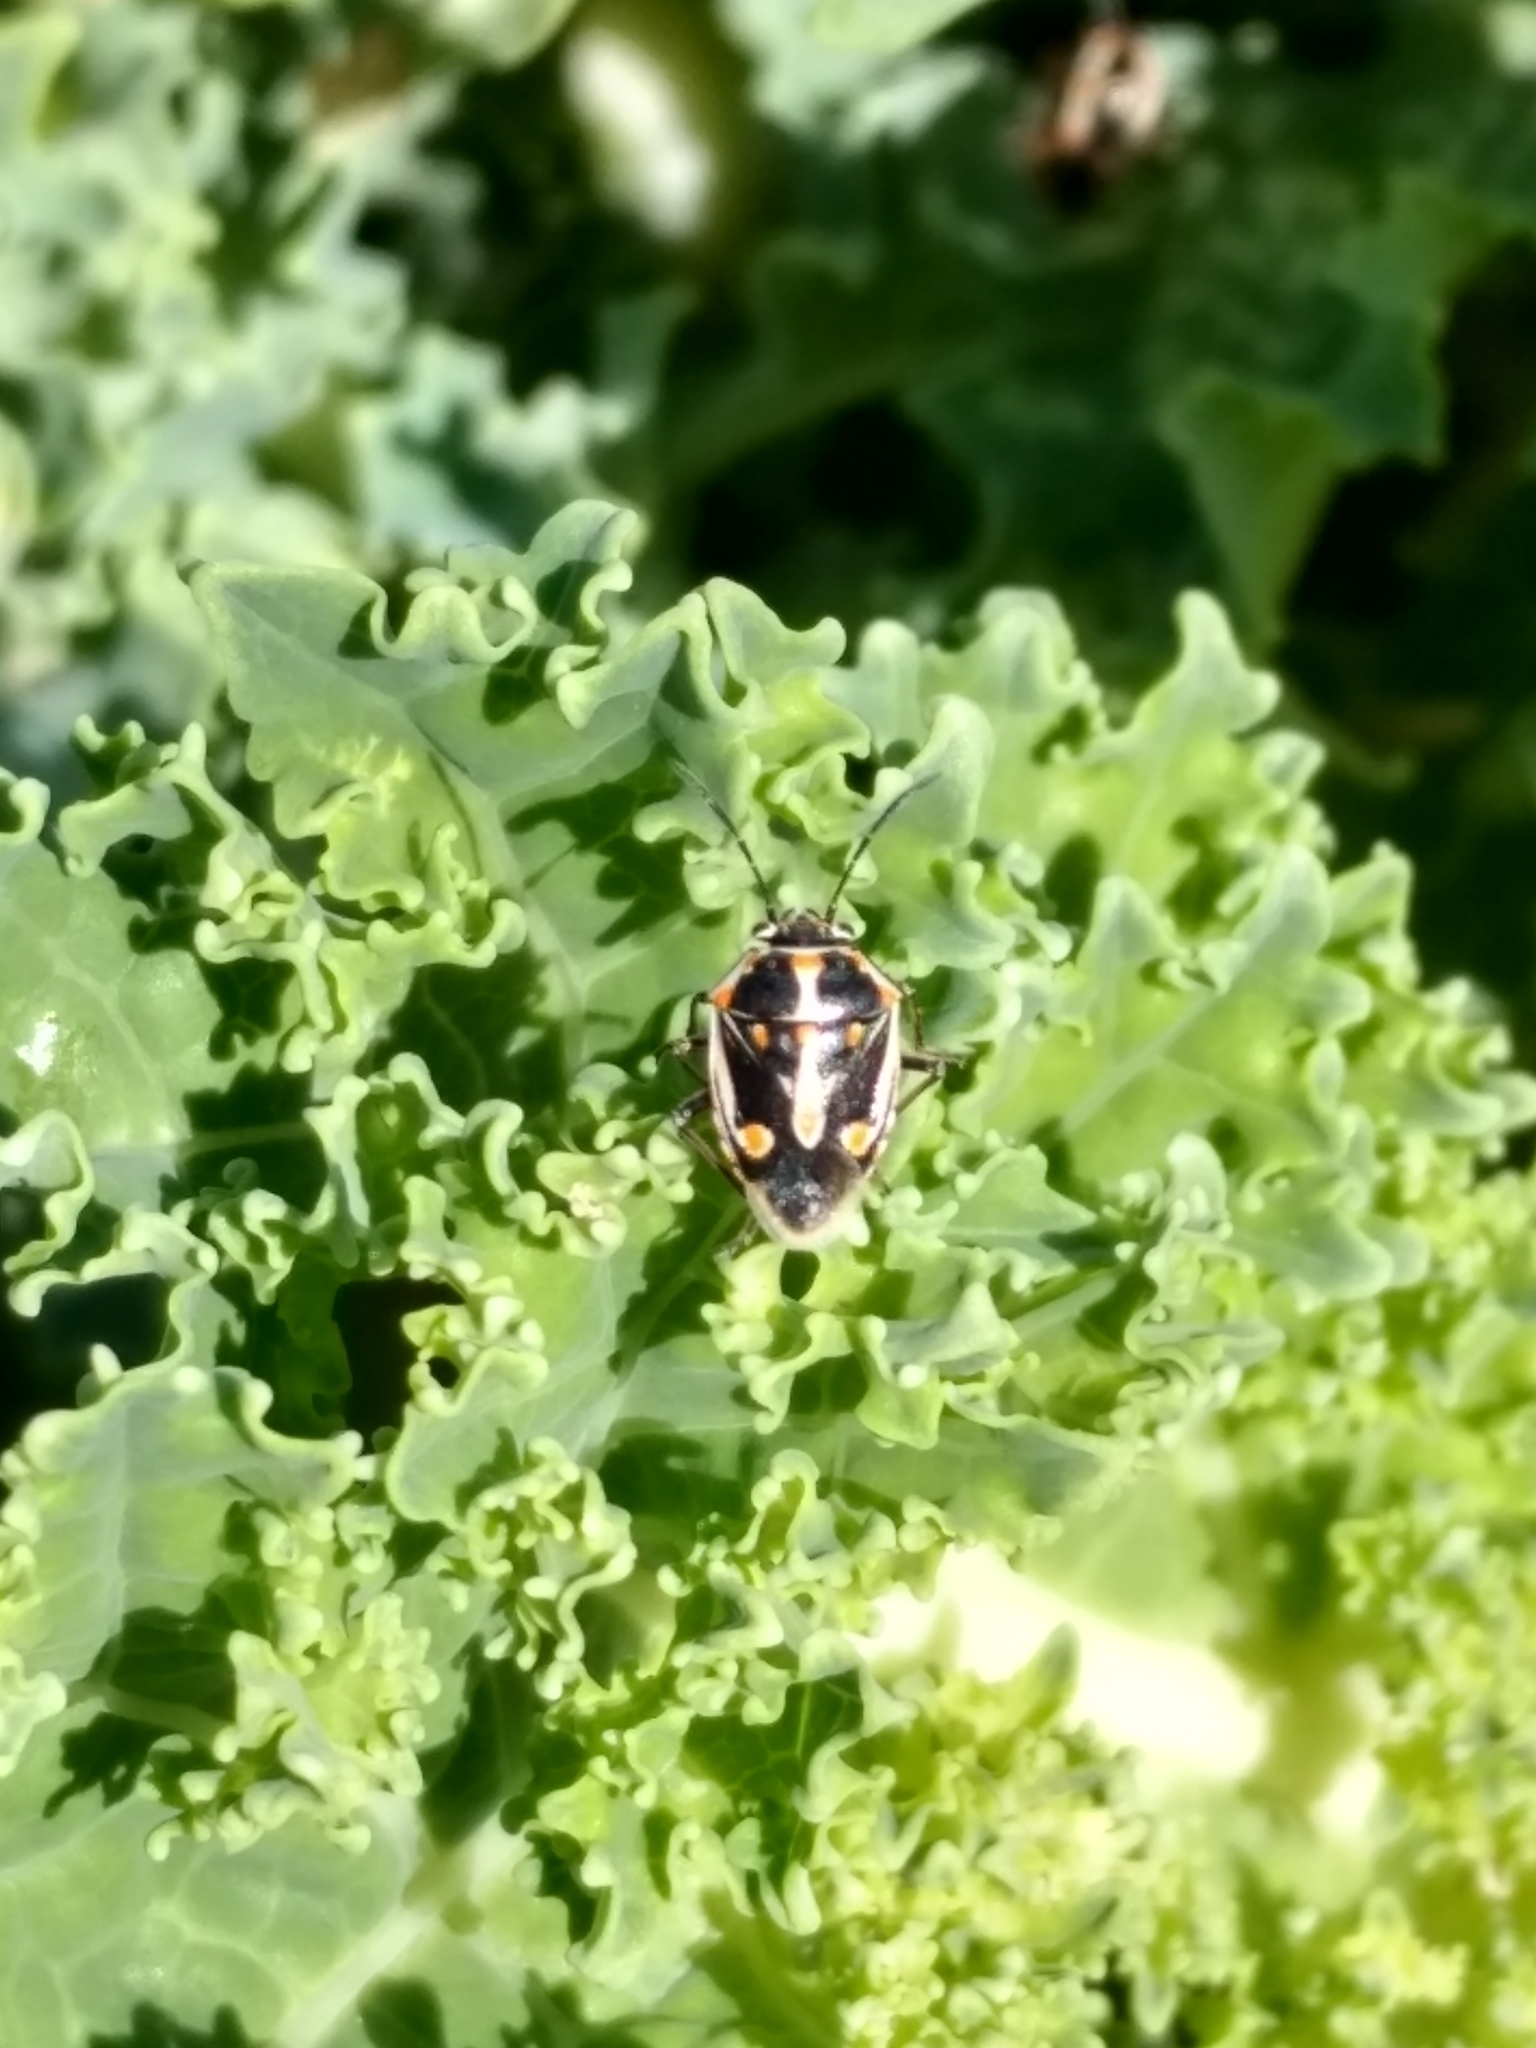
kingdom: Animalia
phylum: Arthropoda
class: Insecta
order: Hemiptera
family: Pentatomidae
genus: Bagrada
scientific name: Bagrada hilaris
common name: Bagrada bug
